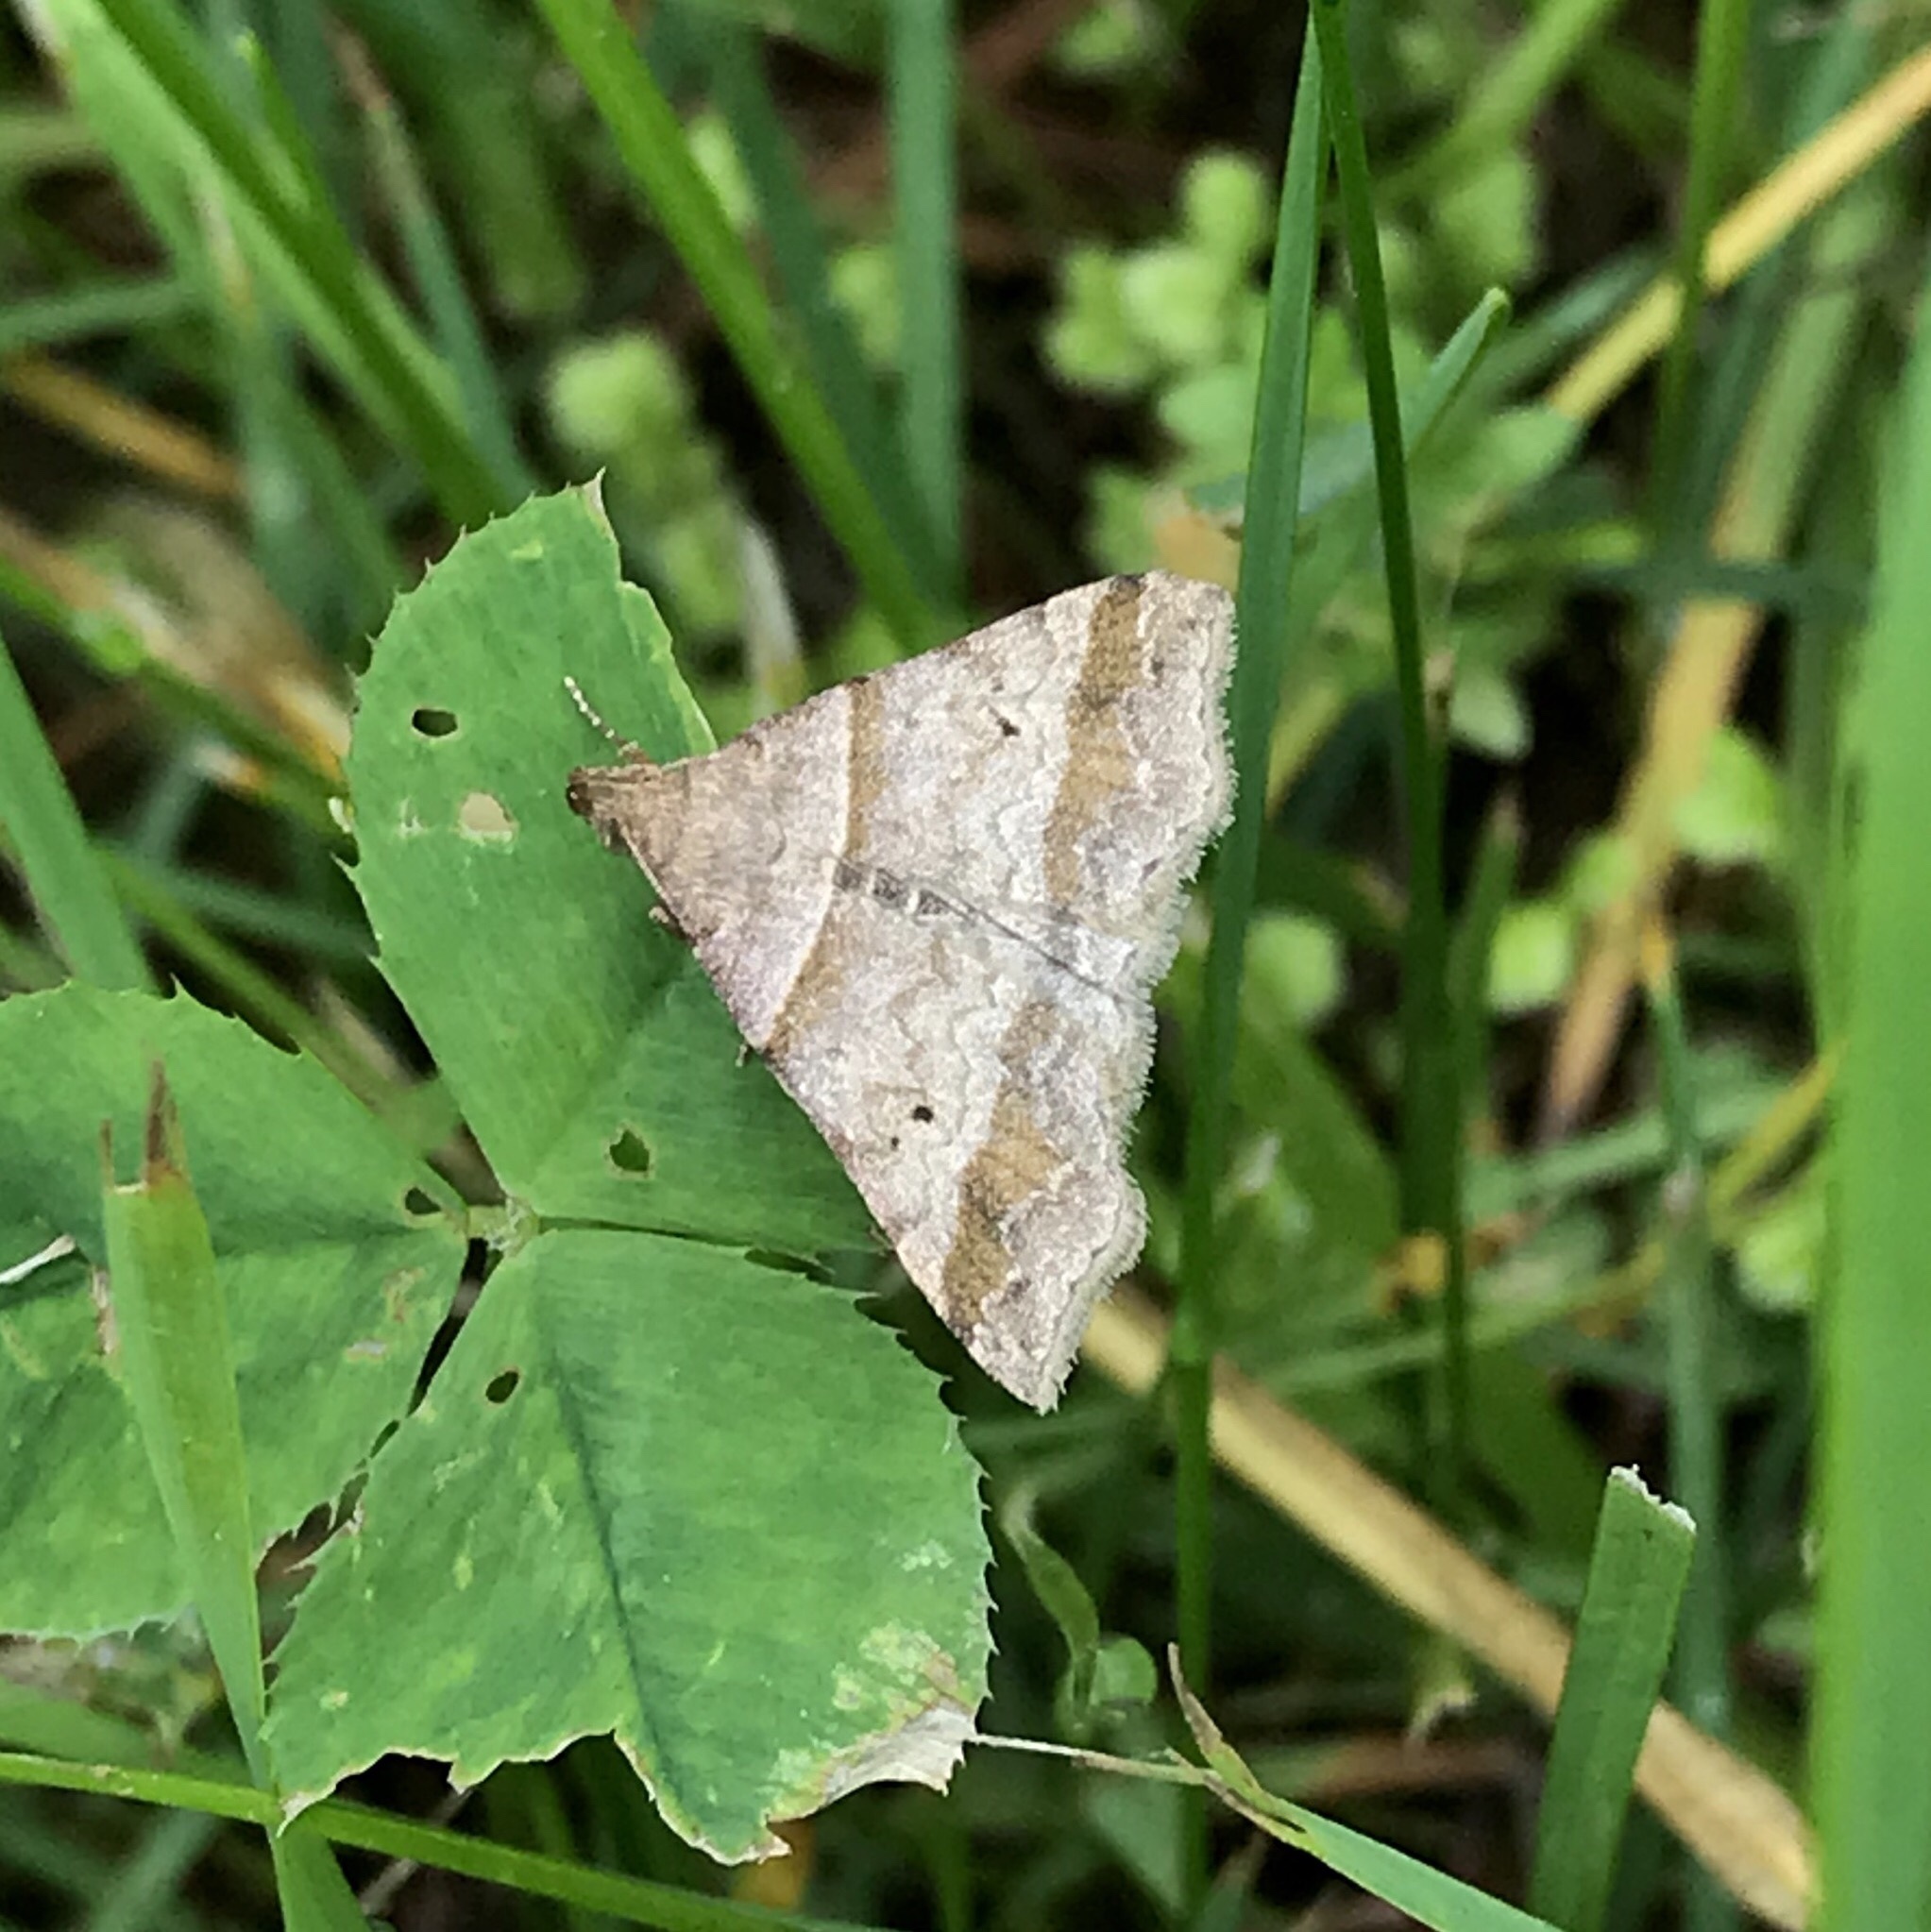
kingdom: Animalia
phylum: Arthropoda
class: Insecta
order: Lepidoptera
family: Erebidae
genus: Phaeolita
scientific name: Phaeolita pyramusalis
